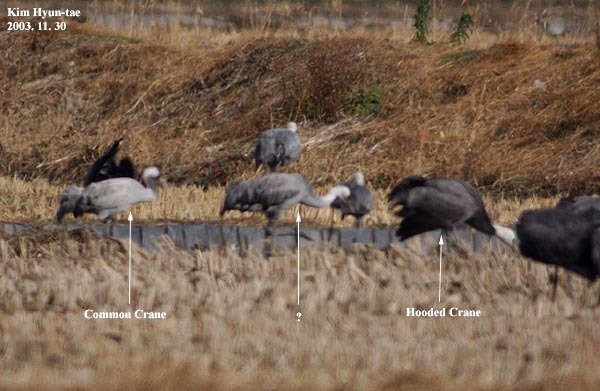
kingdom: Animalia
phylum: Chordata
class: Aves
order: Gruiformes
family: Gruidae
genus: Grus
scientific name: Grus grus
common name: Common crane
